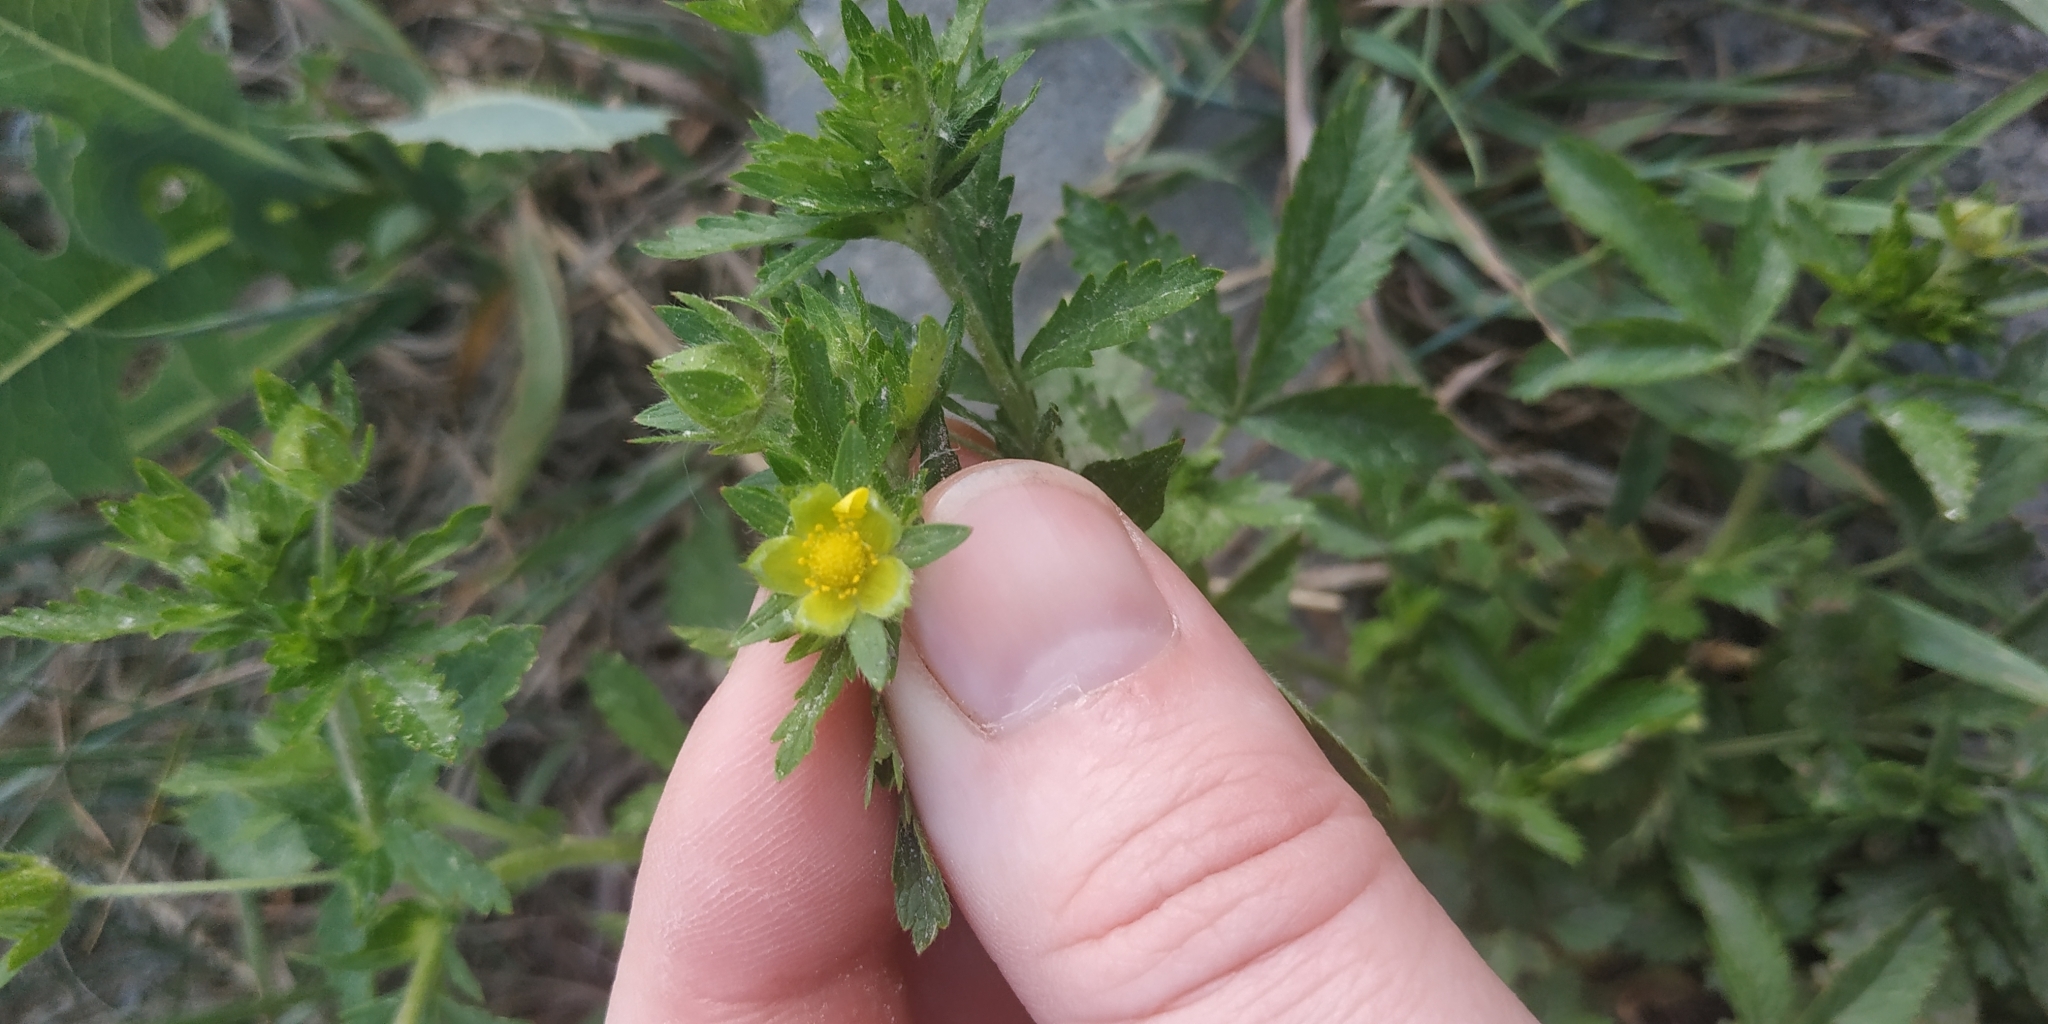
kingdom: Plantae
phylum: Tracheophyta
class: Magnoliopsida
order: Rosales
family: Rosaceae
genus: Potentilla
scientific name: Potentilla norvegica
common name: Ternate-leaved cinquefoil
